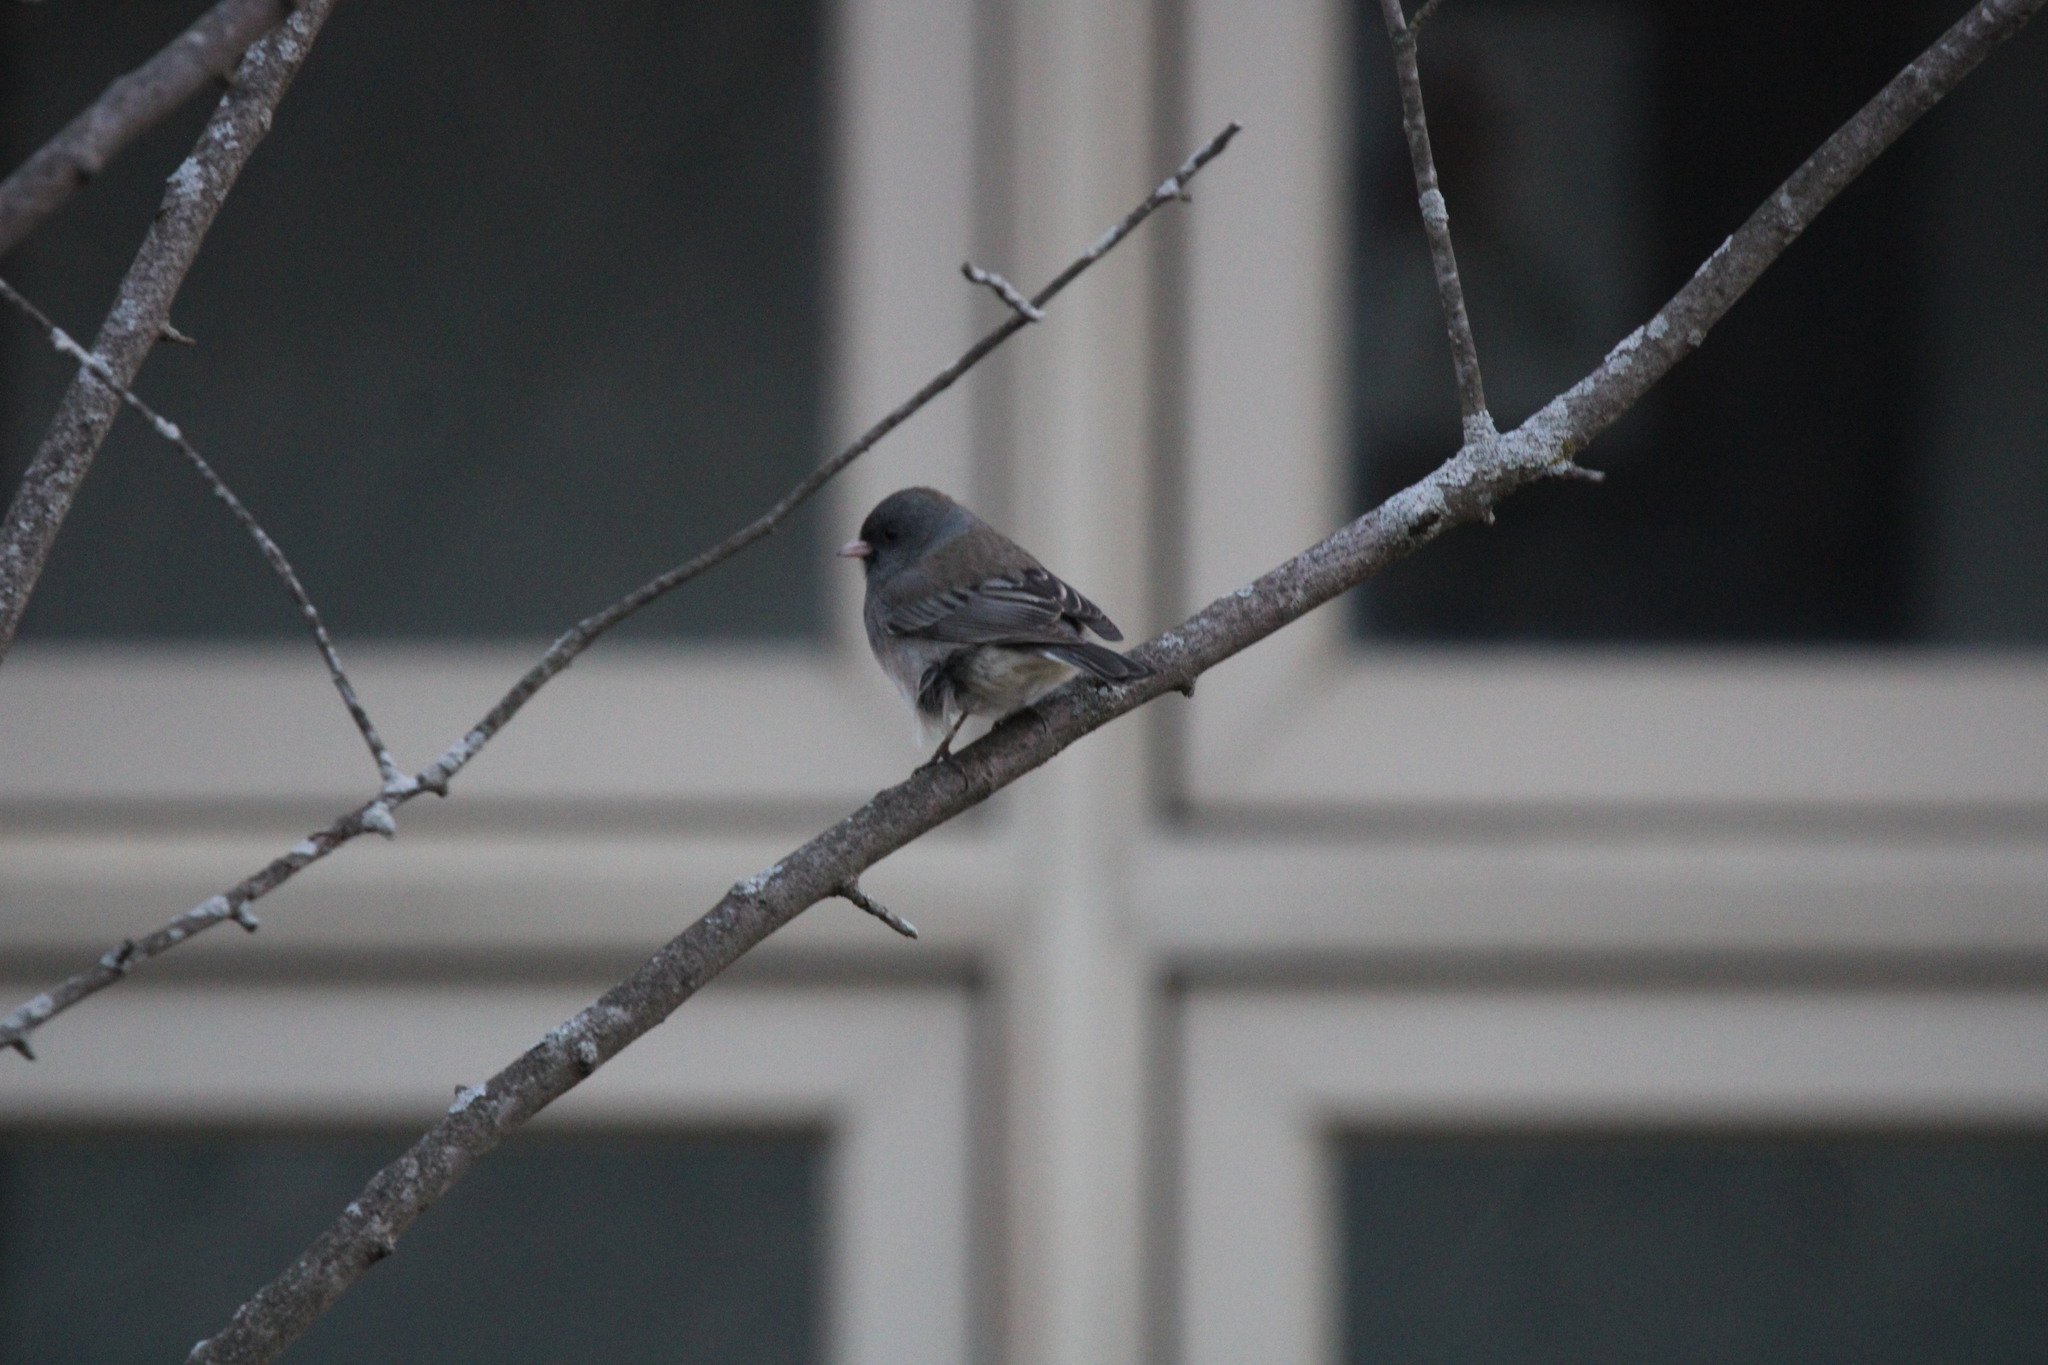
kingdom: Animalia
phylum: Chordata
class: Aves
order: Passeriformes
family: Passerellidae
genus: Junco
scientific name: Junco hyemalis
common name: Dark-eyed junco
